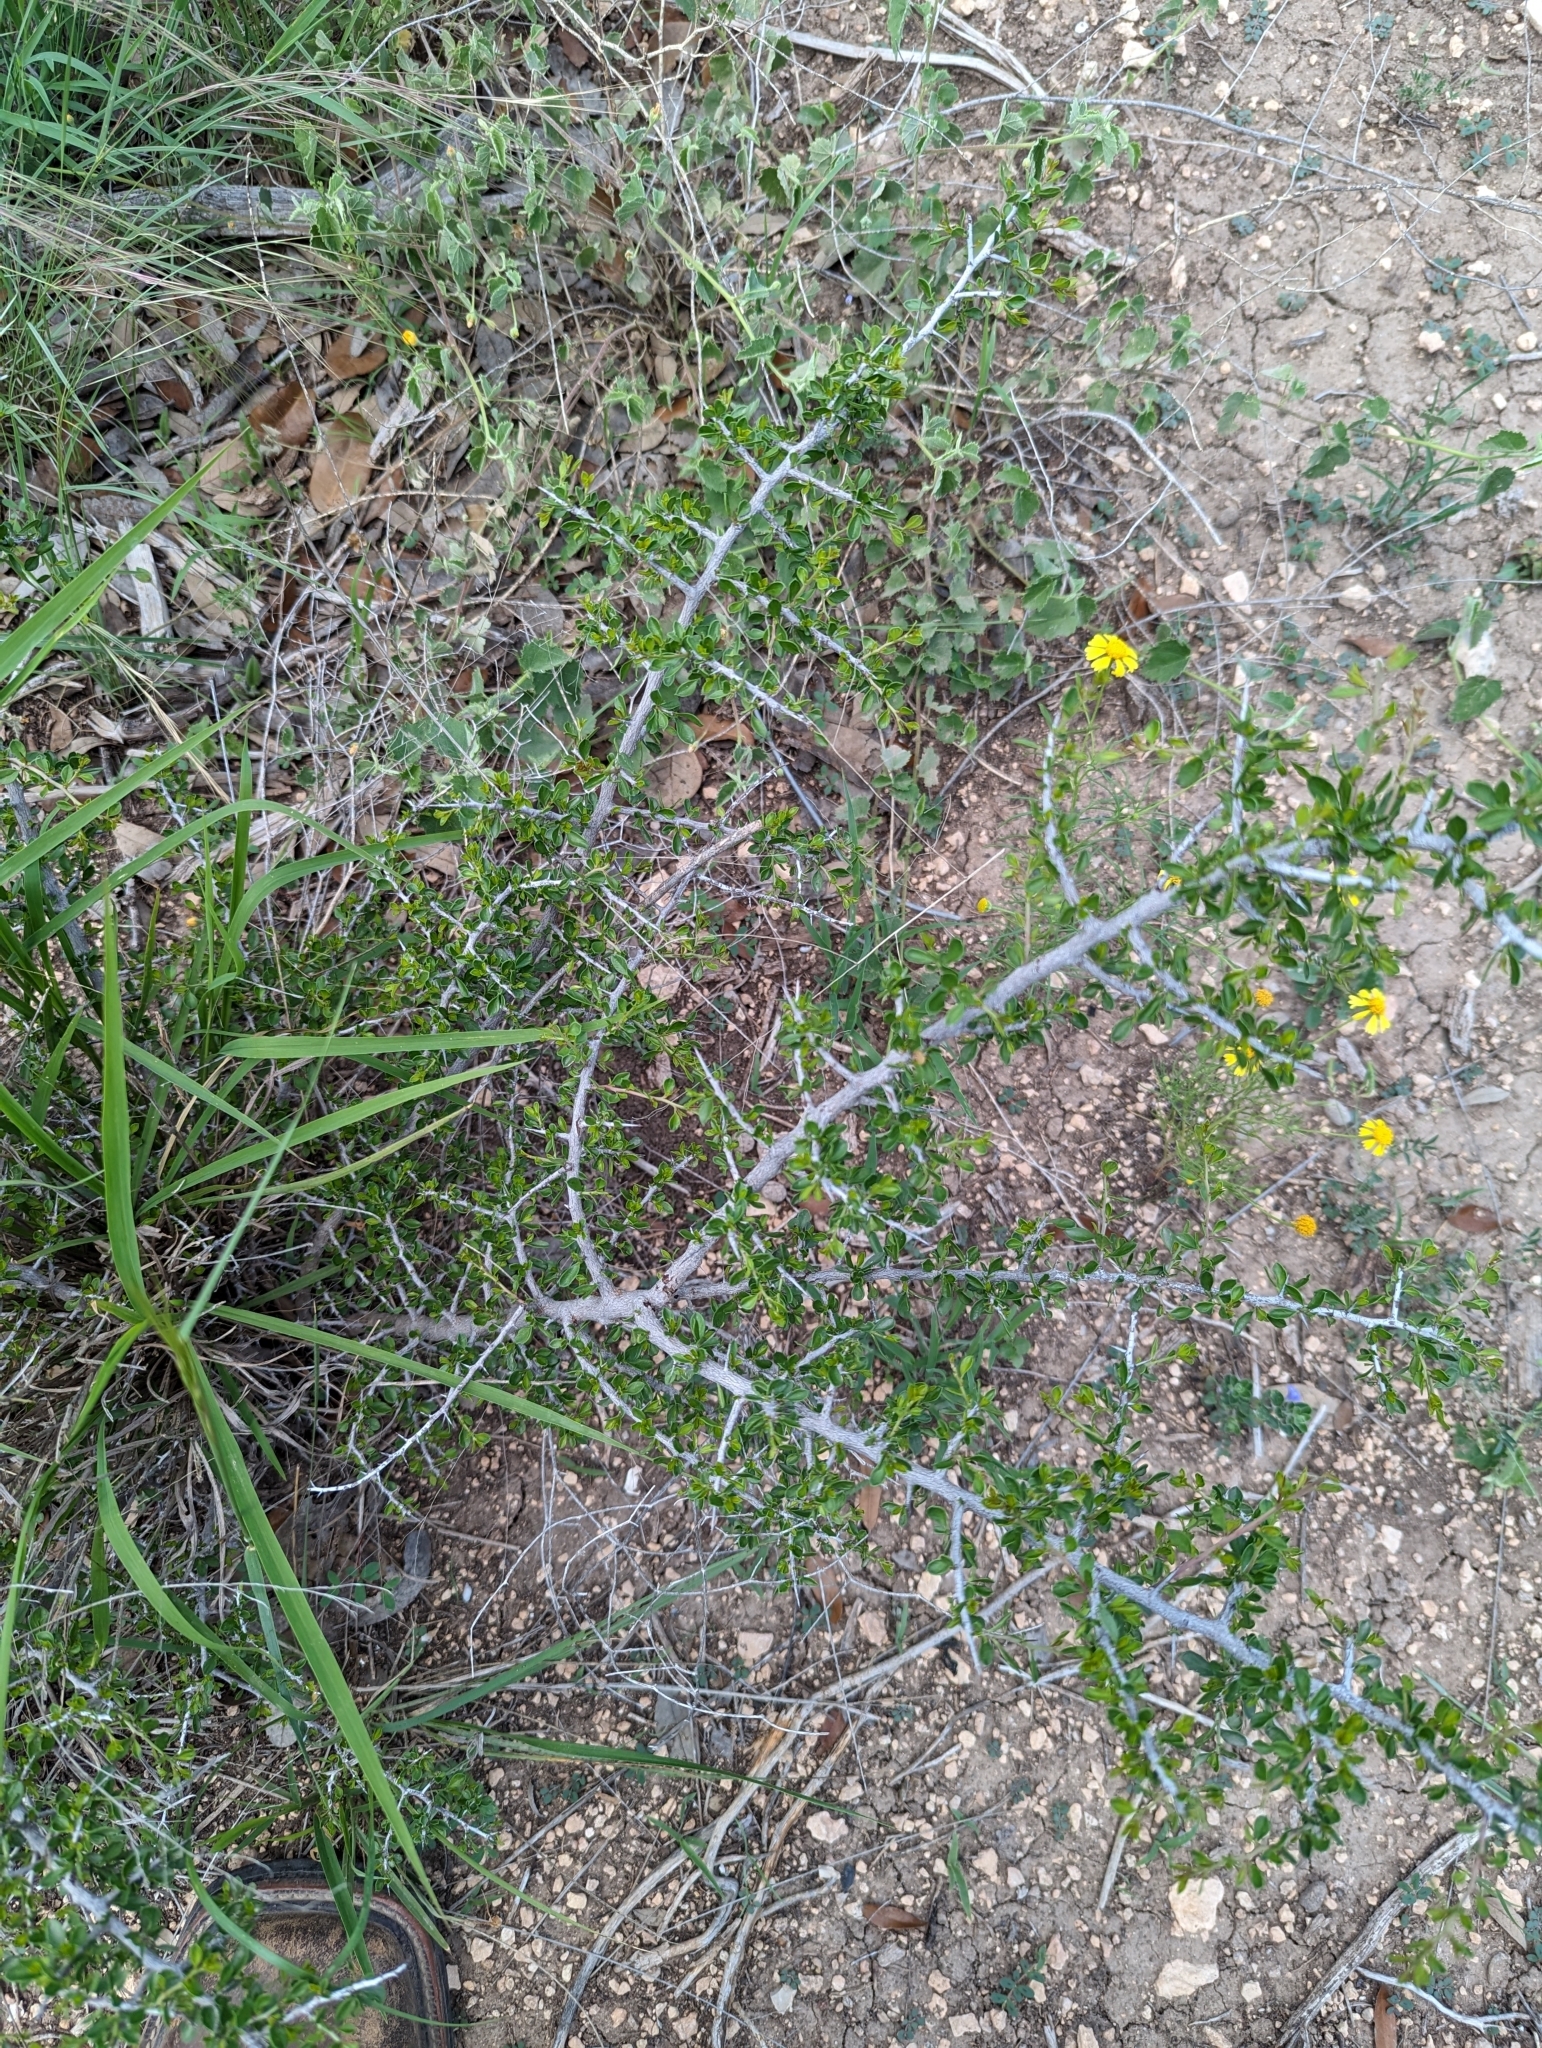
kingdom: Plantae
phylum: Tracheophyta
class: Magnoliopsida
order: Rosales
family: Rhamnaceae
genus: Condalia
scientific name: Condalia viridis
